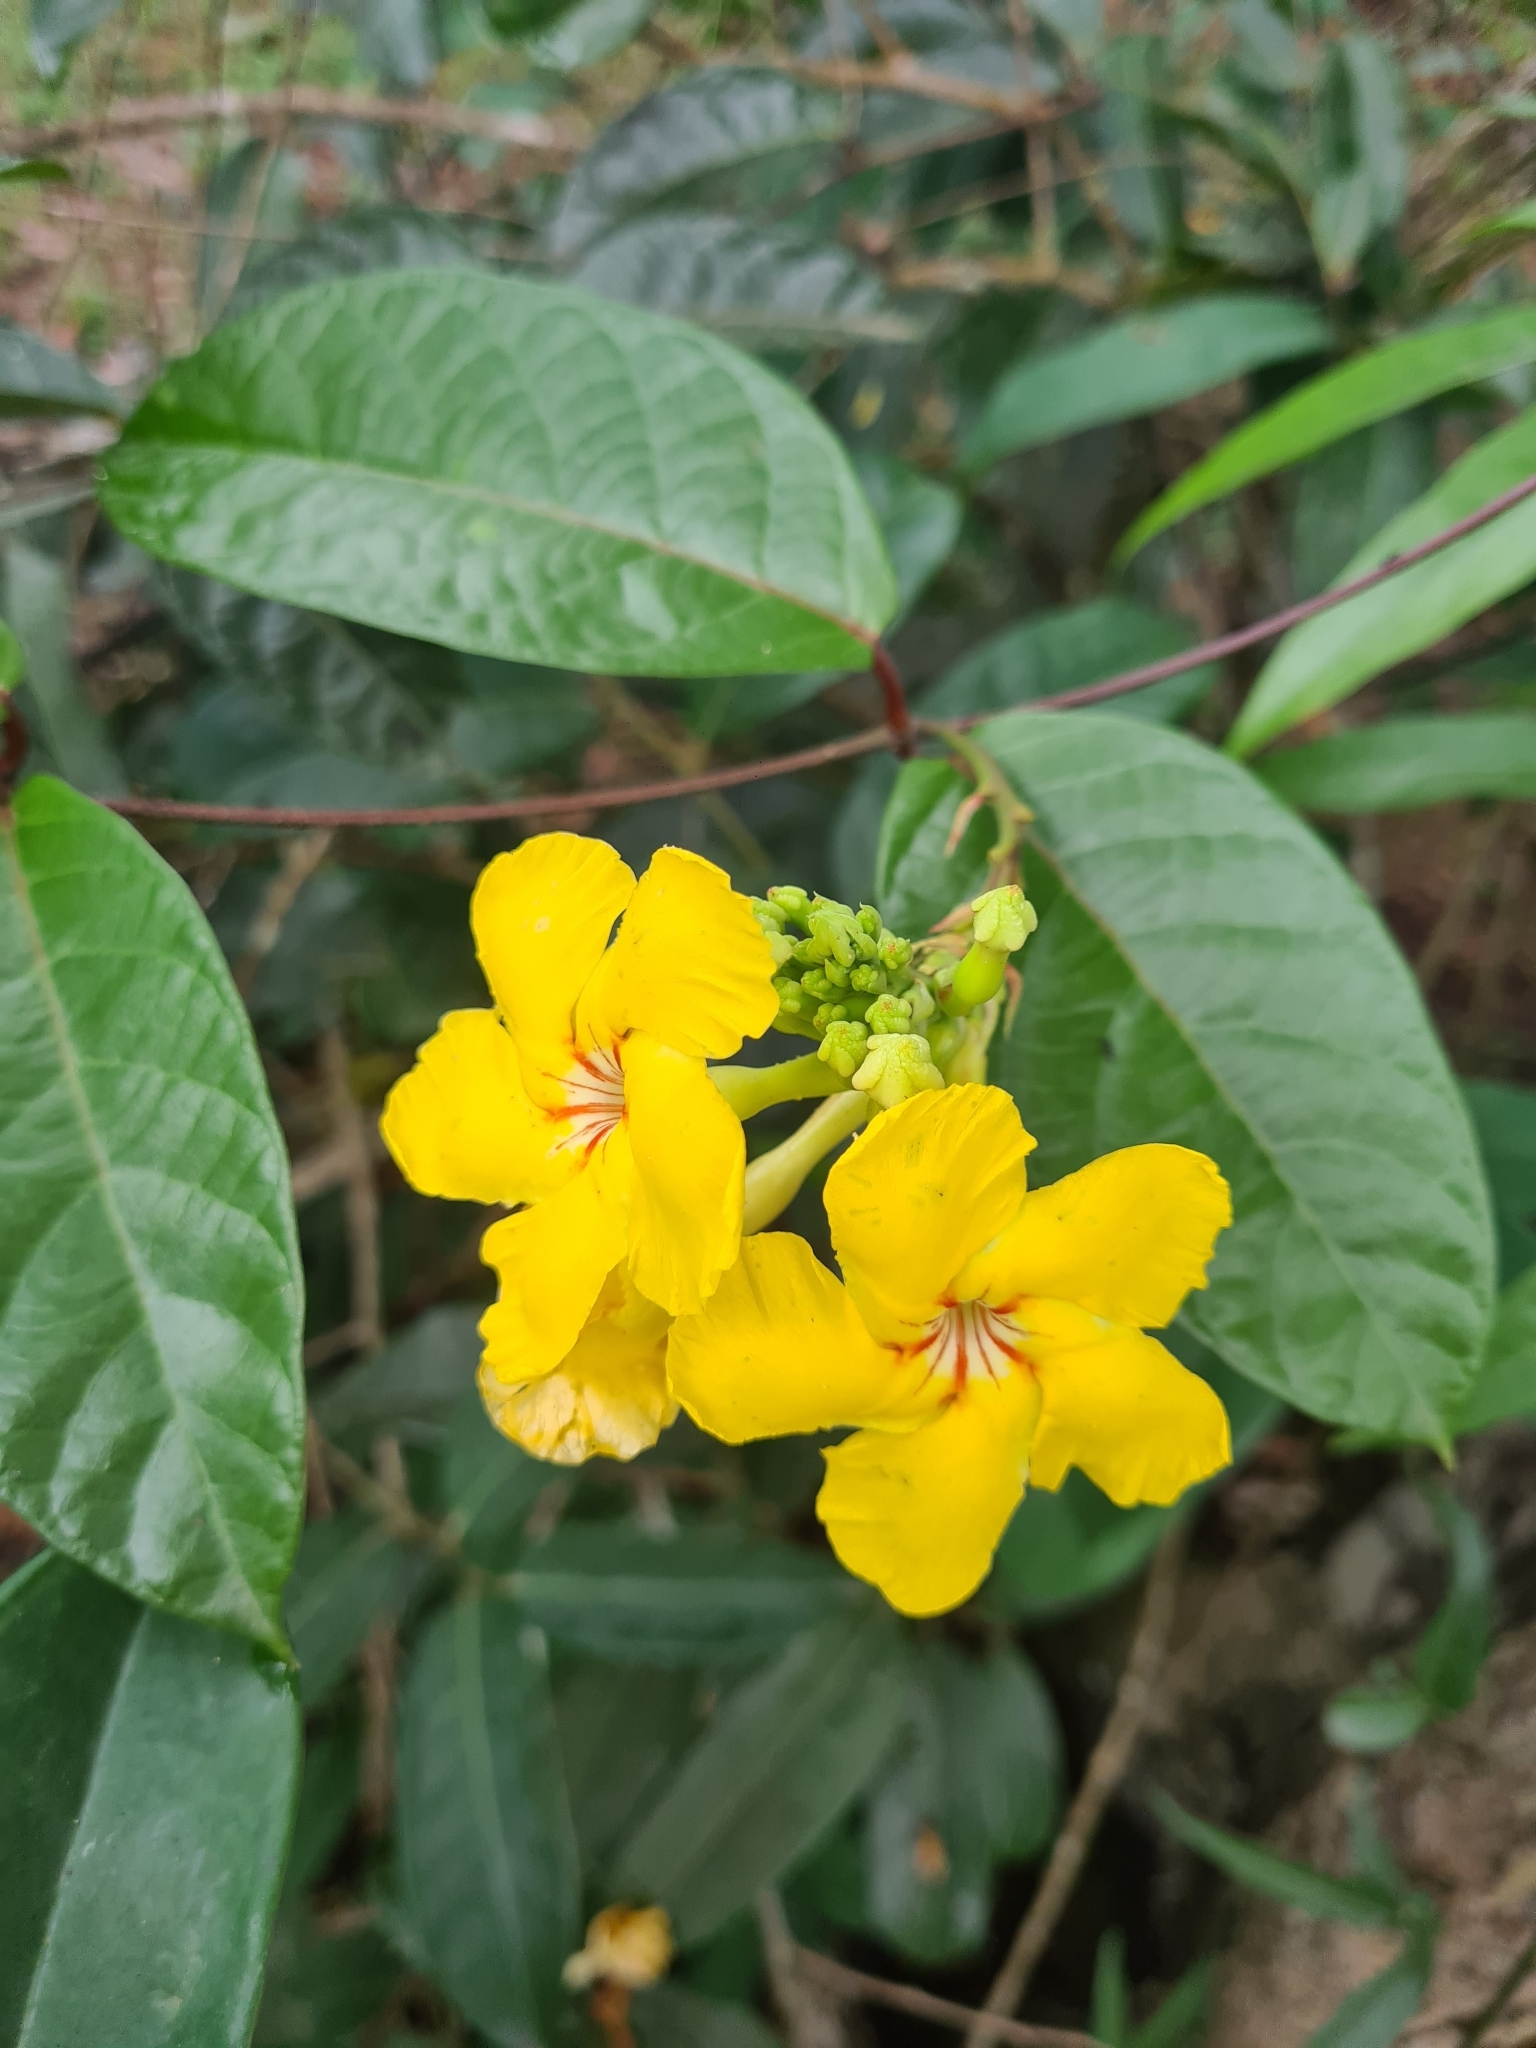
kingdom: Plantae
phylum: Tracheophyta
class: Magnoliopsida
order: Gentianales
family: Apocynaceae
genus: Mandevilla
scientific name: Mandevilla rugellosa
